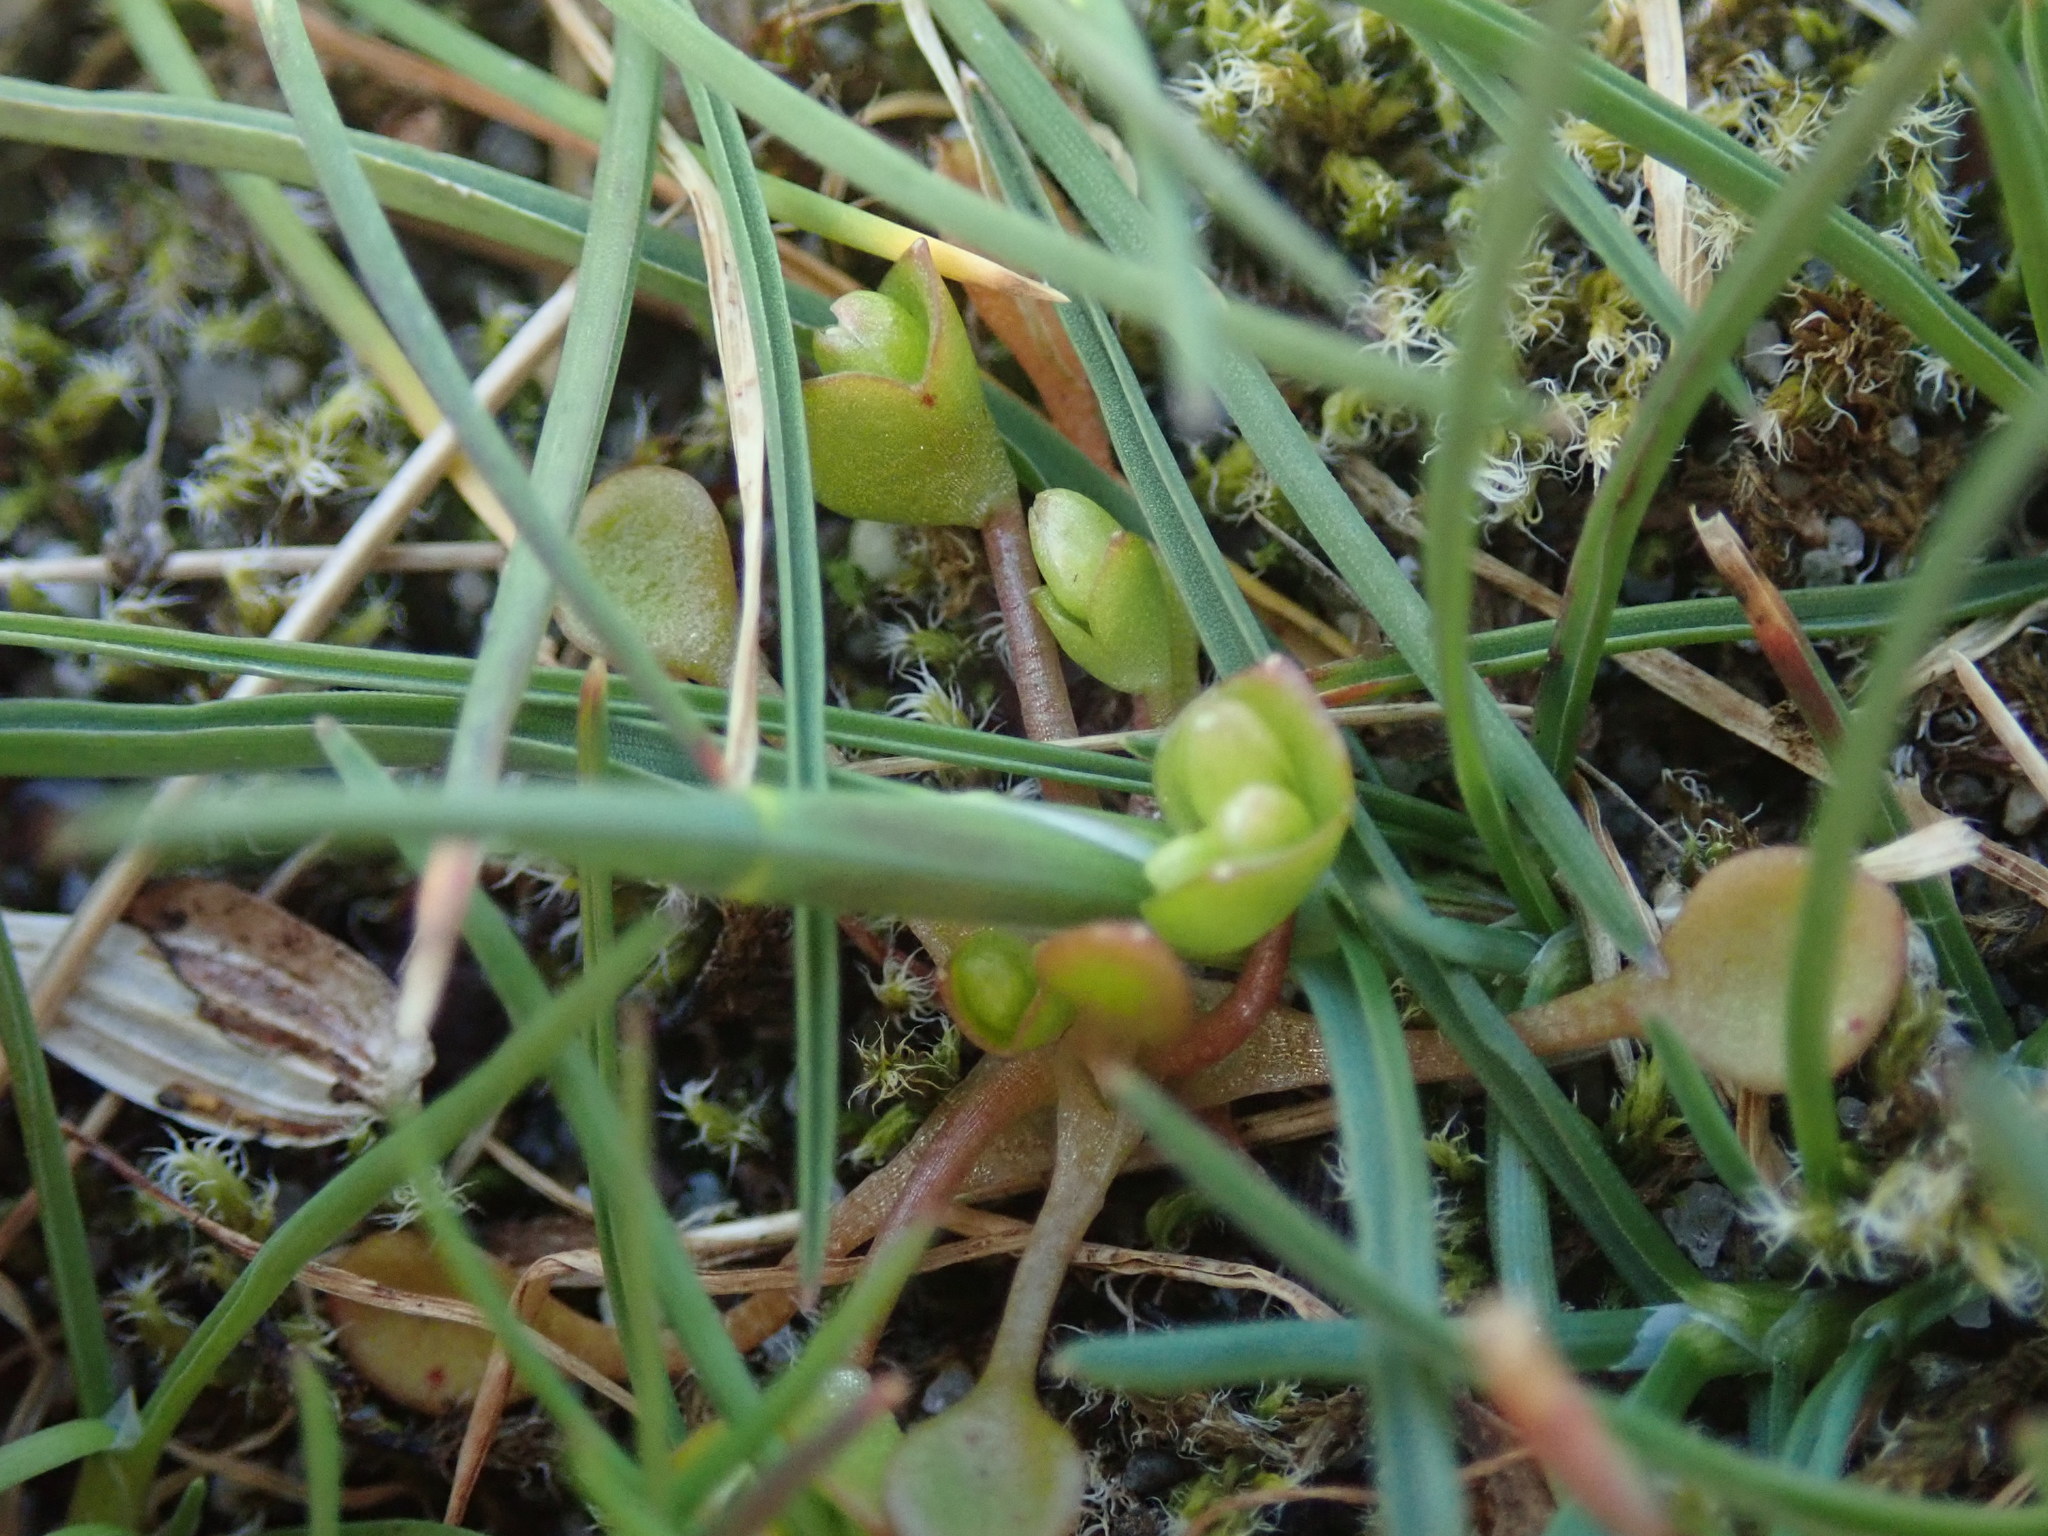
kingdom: Plantae
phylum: Tracheophyta
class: Magnoliopsida
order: Caryophyllales
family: Montiaceae
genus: Claytonia
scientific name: Claytonia rubra
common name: Erubescent miner's-lettuce
